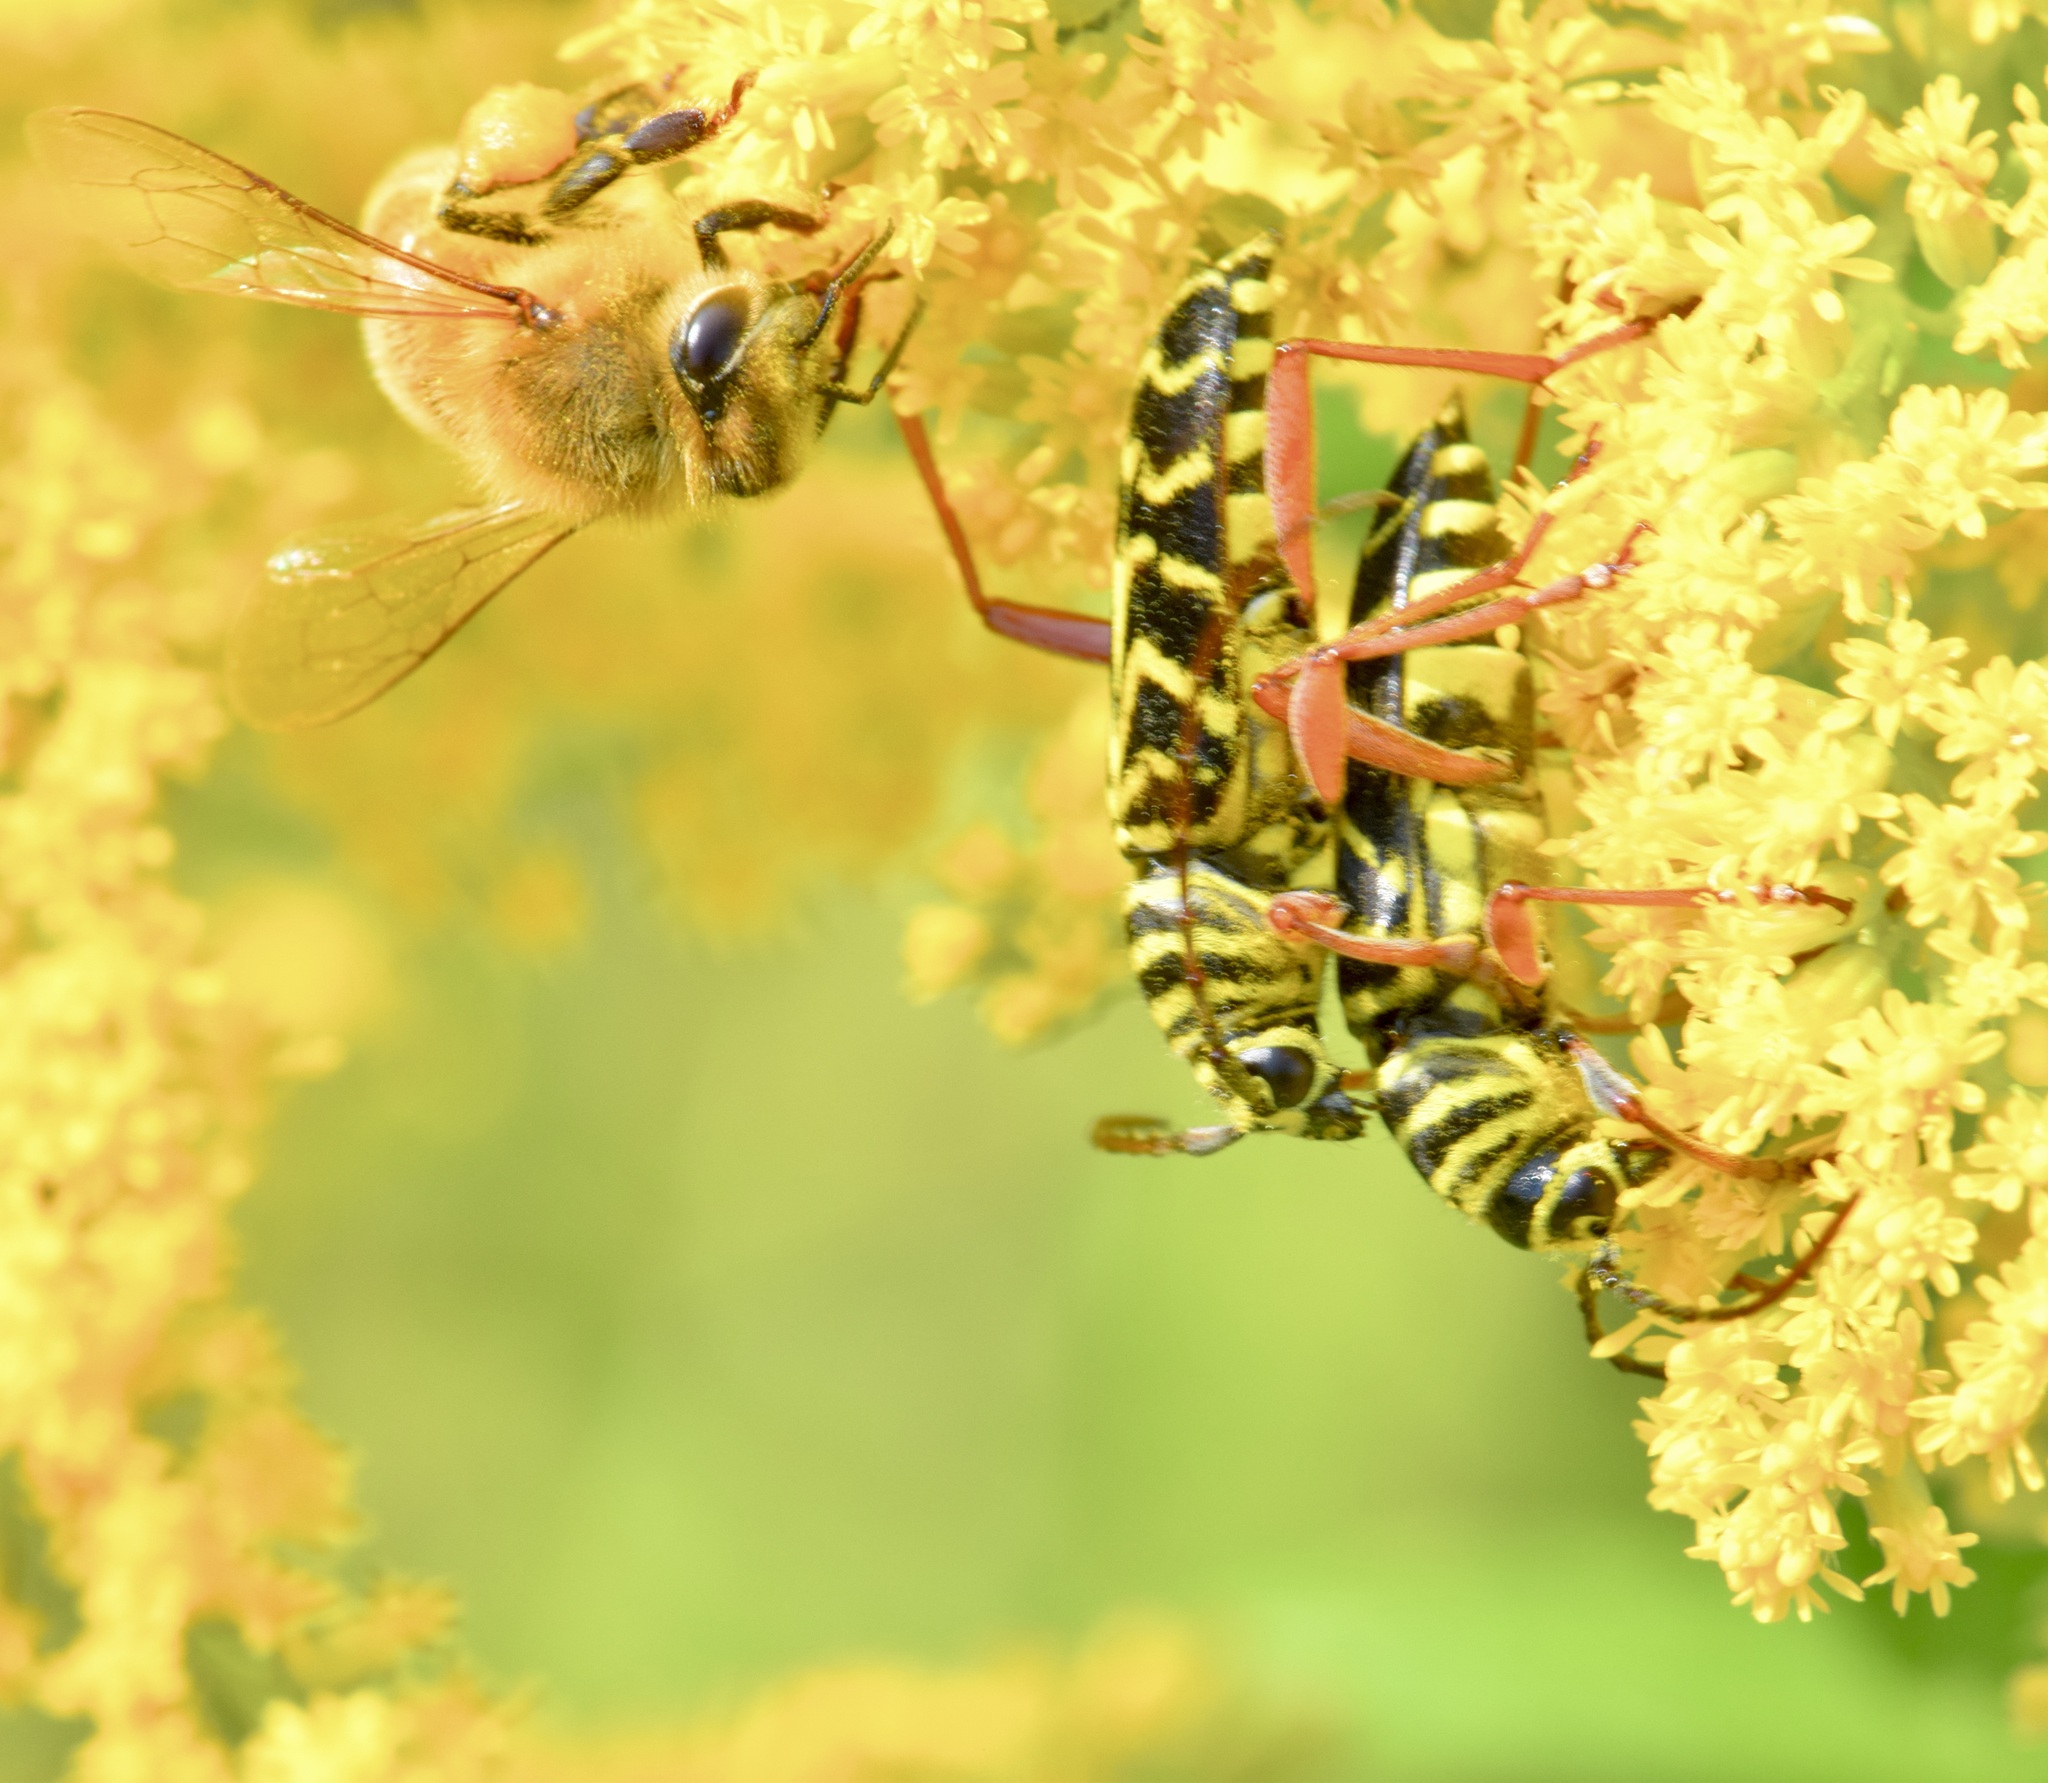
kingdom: Animalia
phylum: Arthropoda
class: Insecta
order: Coleoptera
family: Cerambycidae
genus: Megacyllene
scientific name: Megacyllene robiniae
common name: Locust borer
